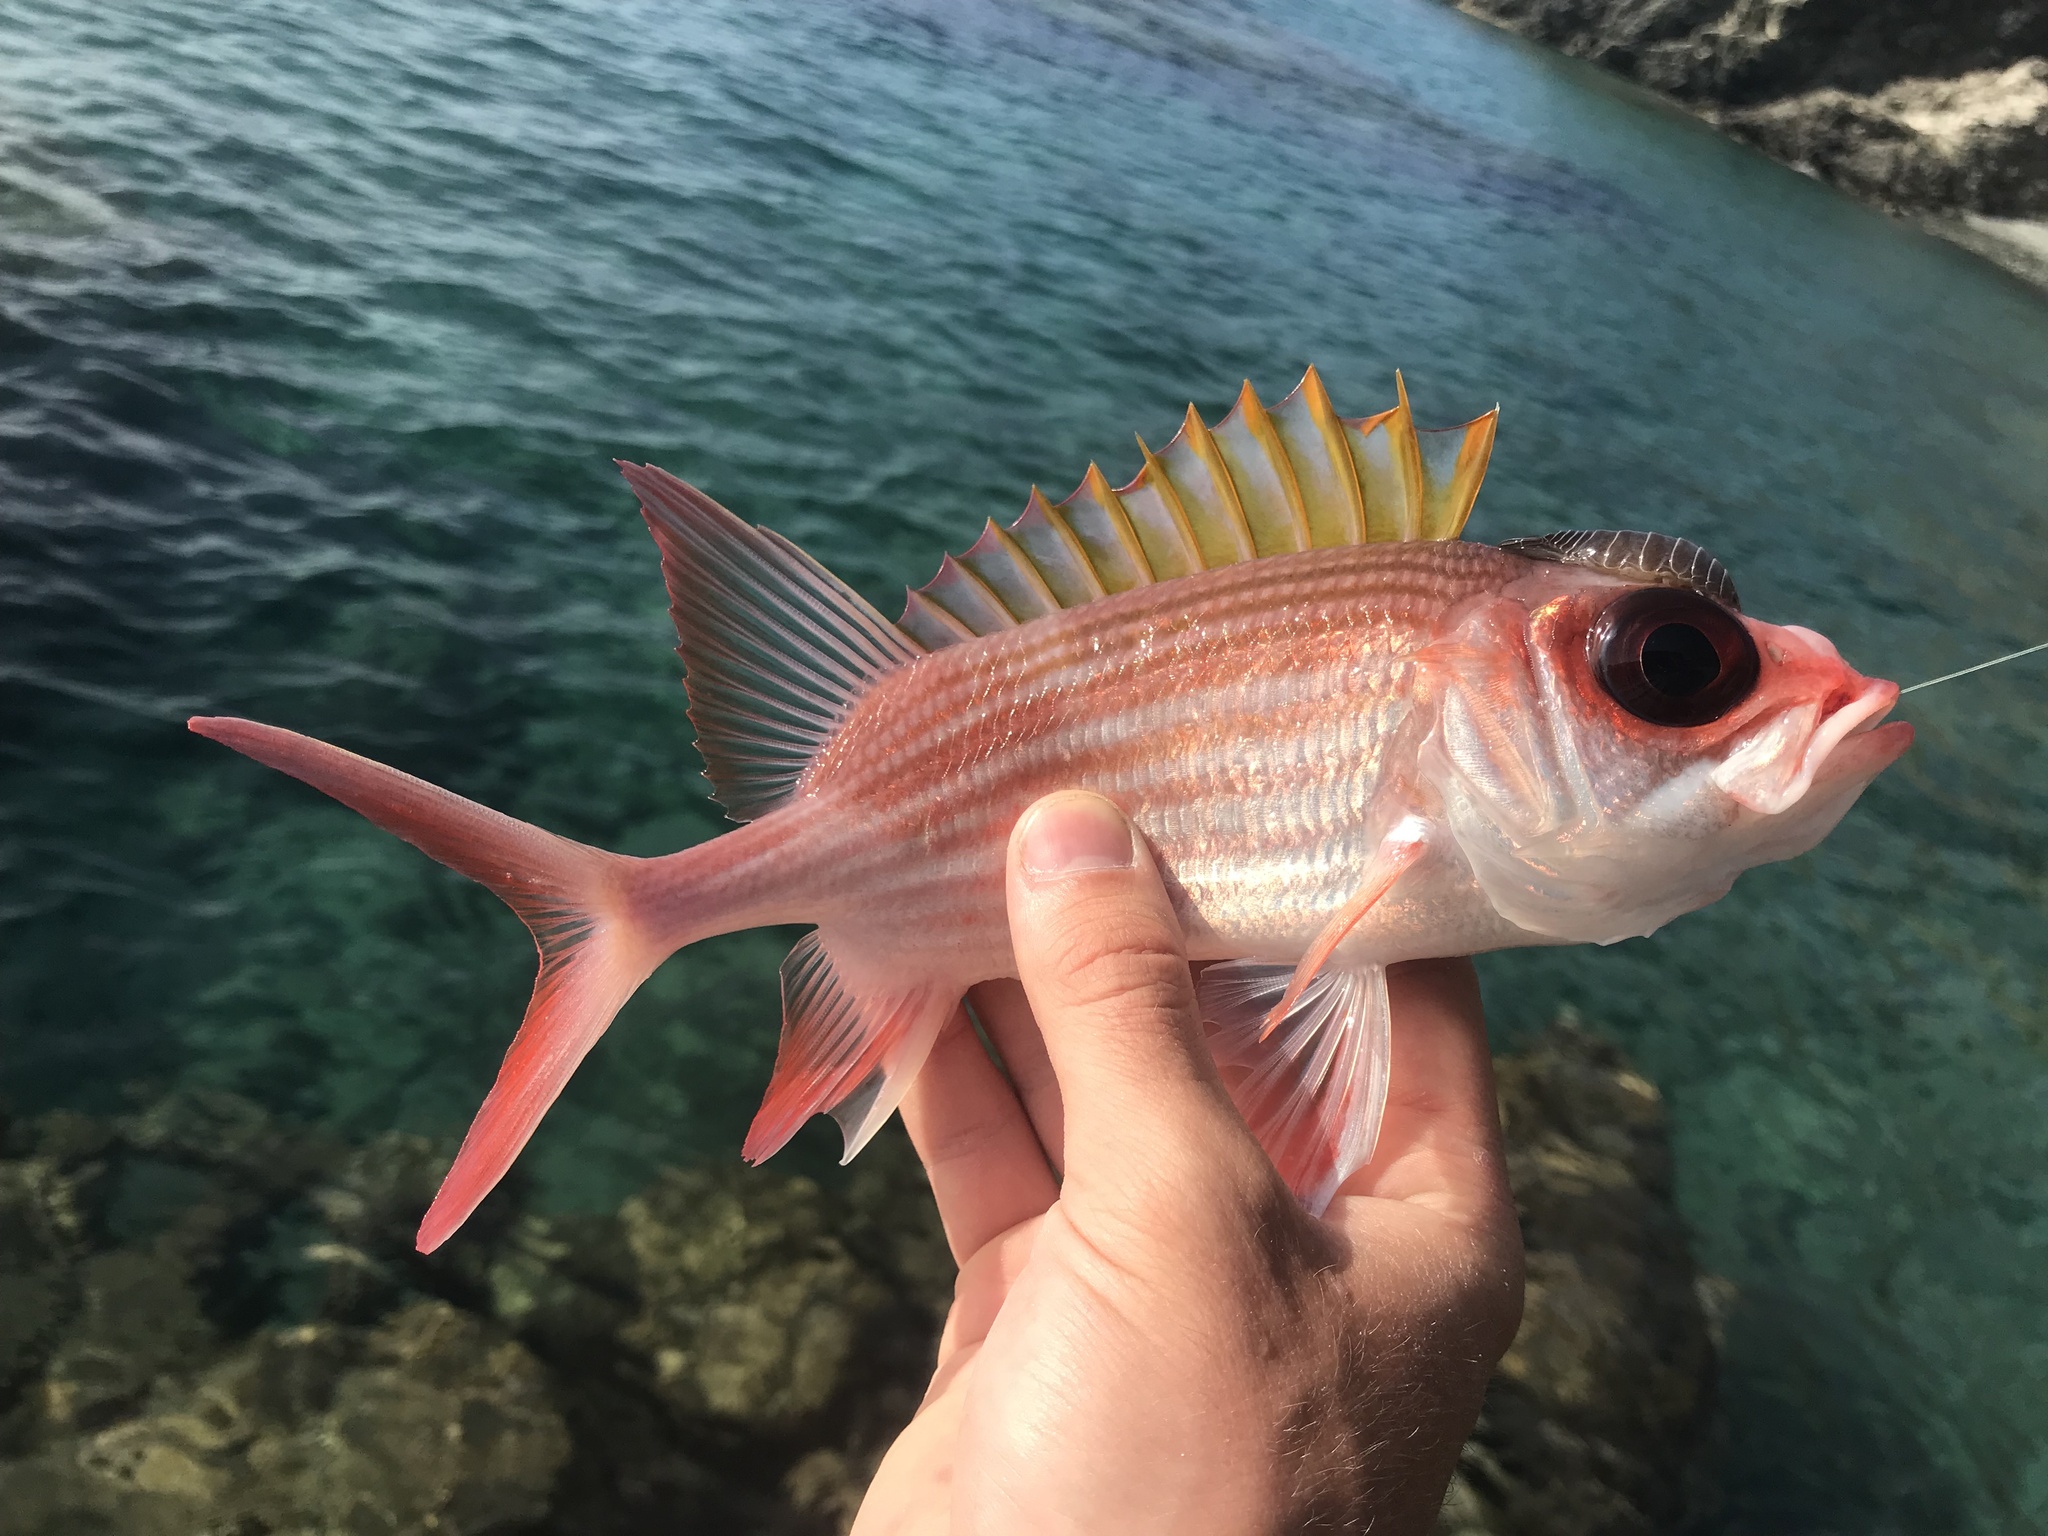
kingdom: Animalia
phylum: Chordata
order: Beryciformes
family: Holocentridae
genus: Holocentrus
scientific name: Holocentrus adscensionis
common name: Squirrelfish
